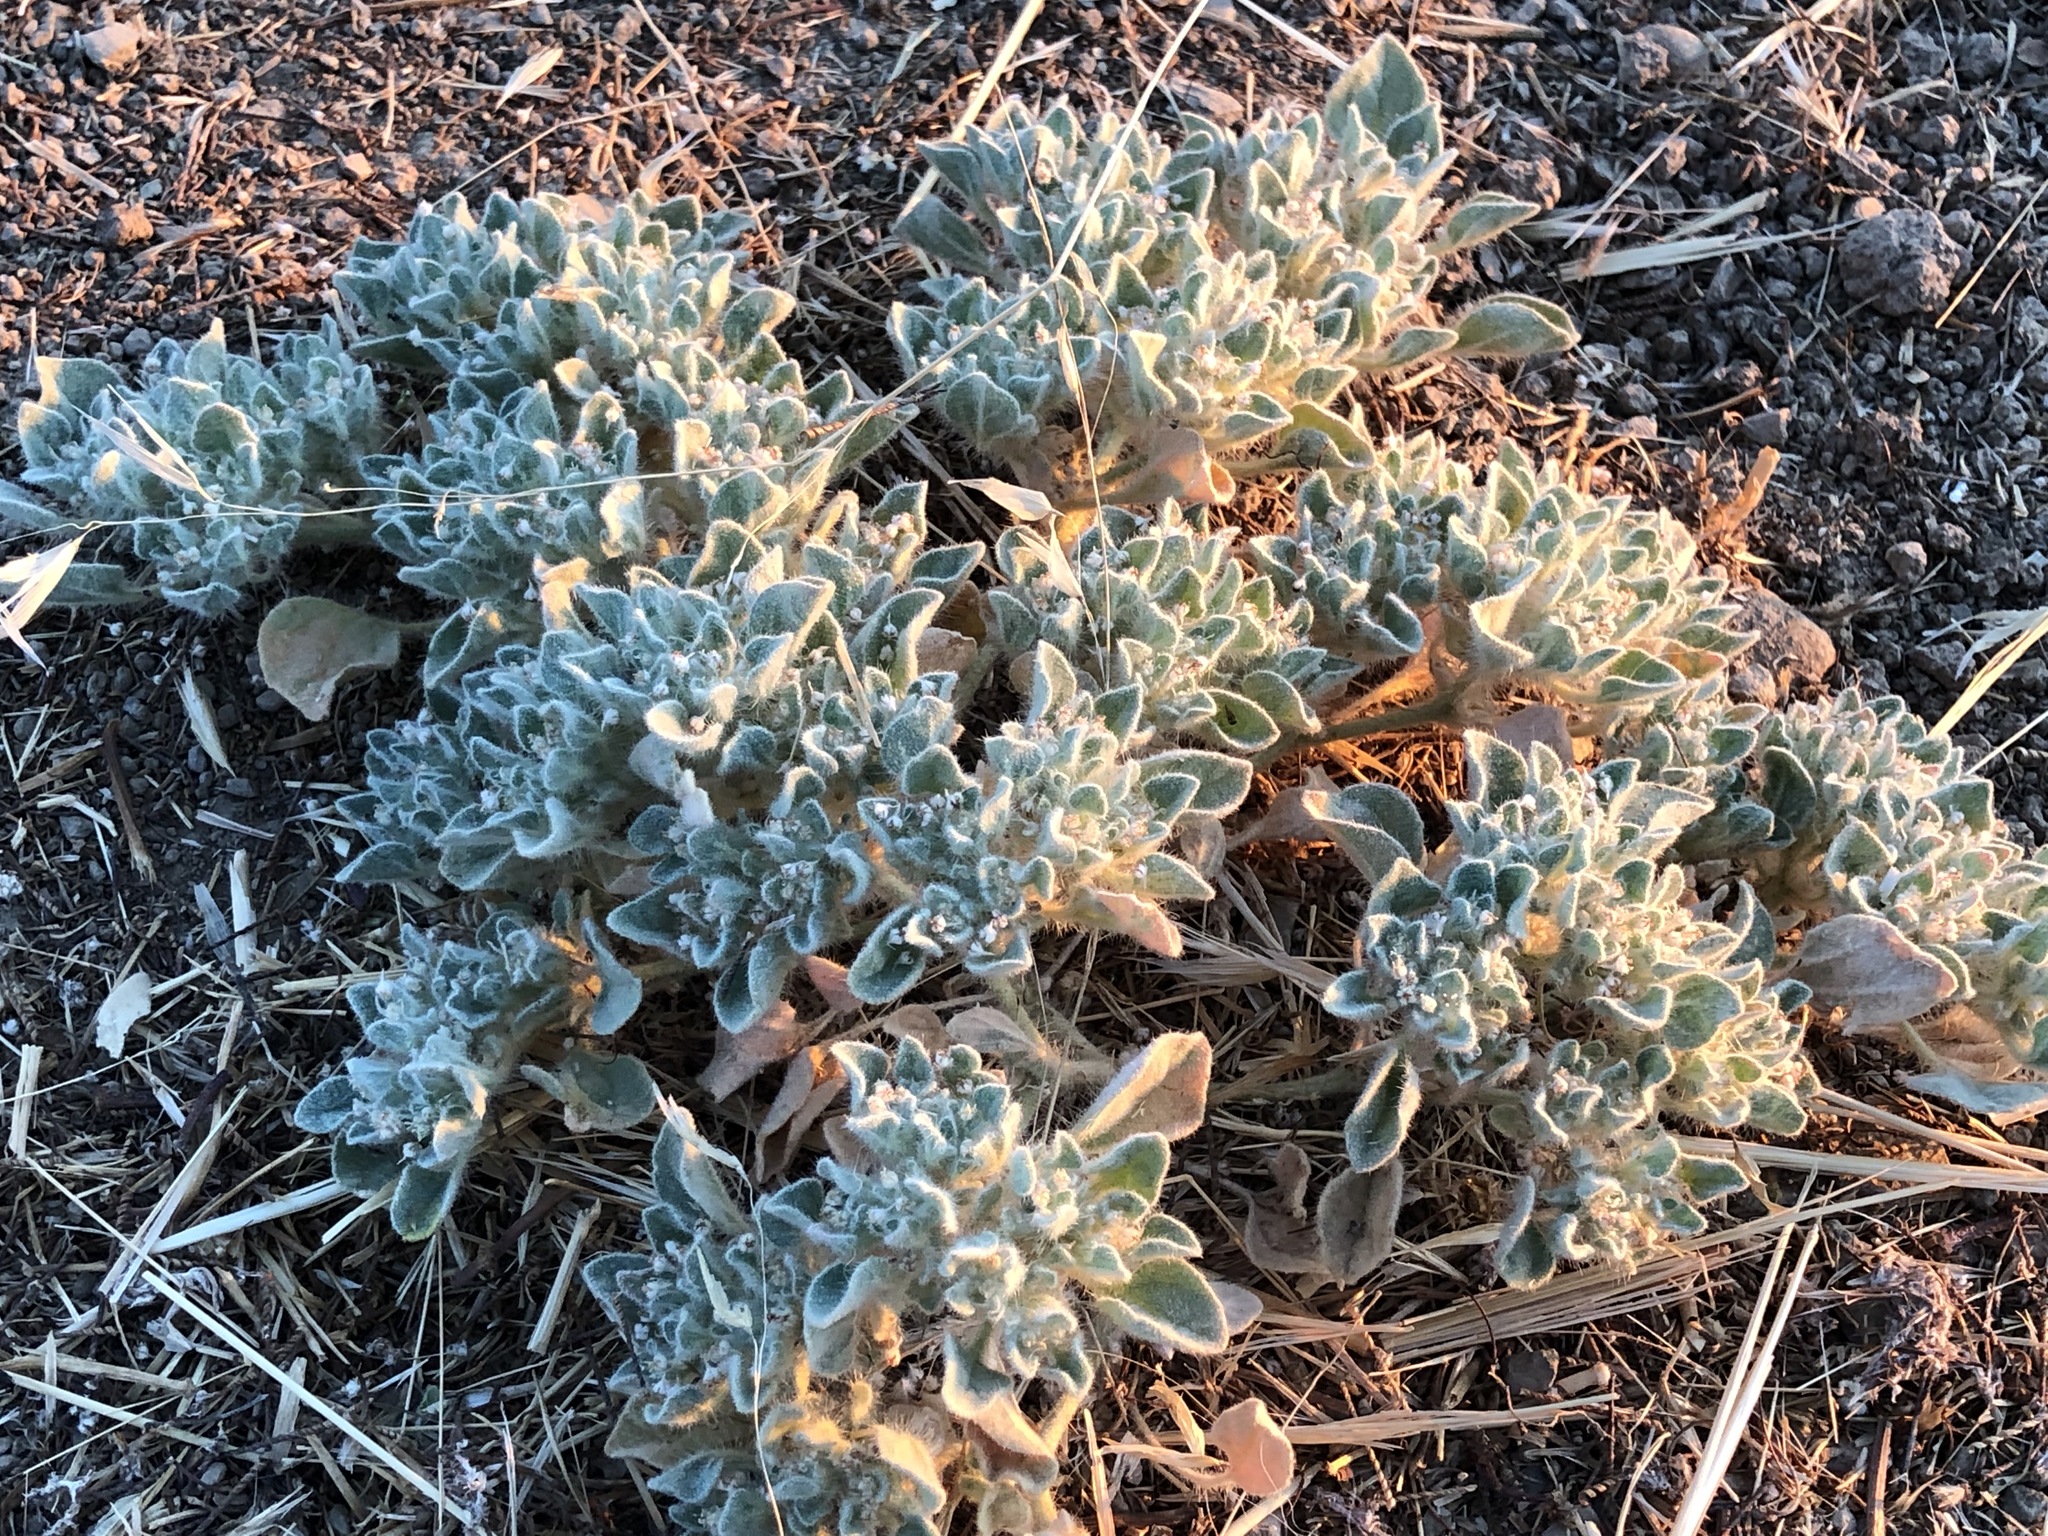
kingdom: Plantae
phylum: Tracheophyta
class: Magnoliopsida
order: Malpighiales
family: Euphorbiaceae
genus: Croton
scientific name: Croton setiger
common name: Dove weed
